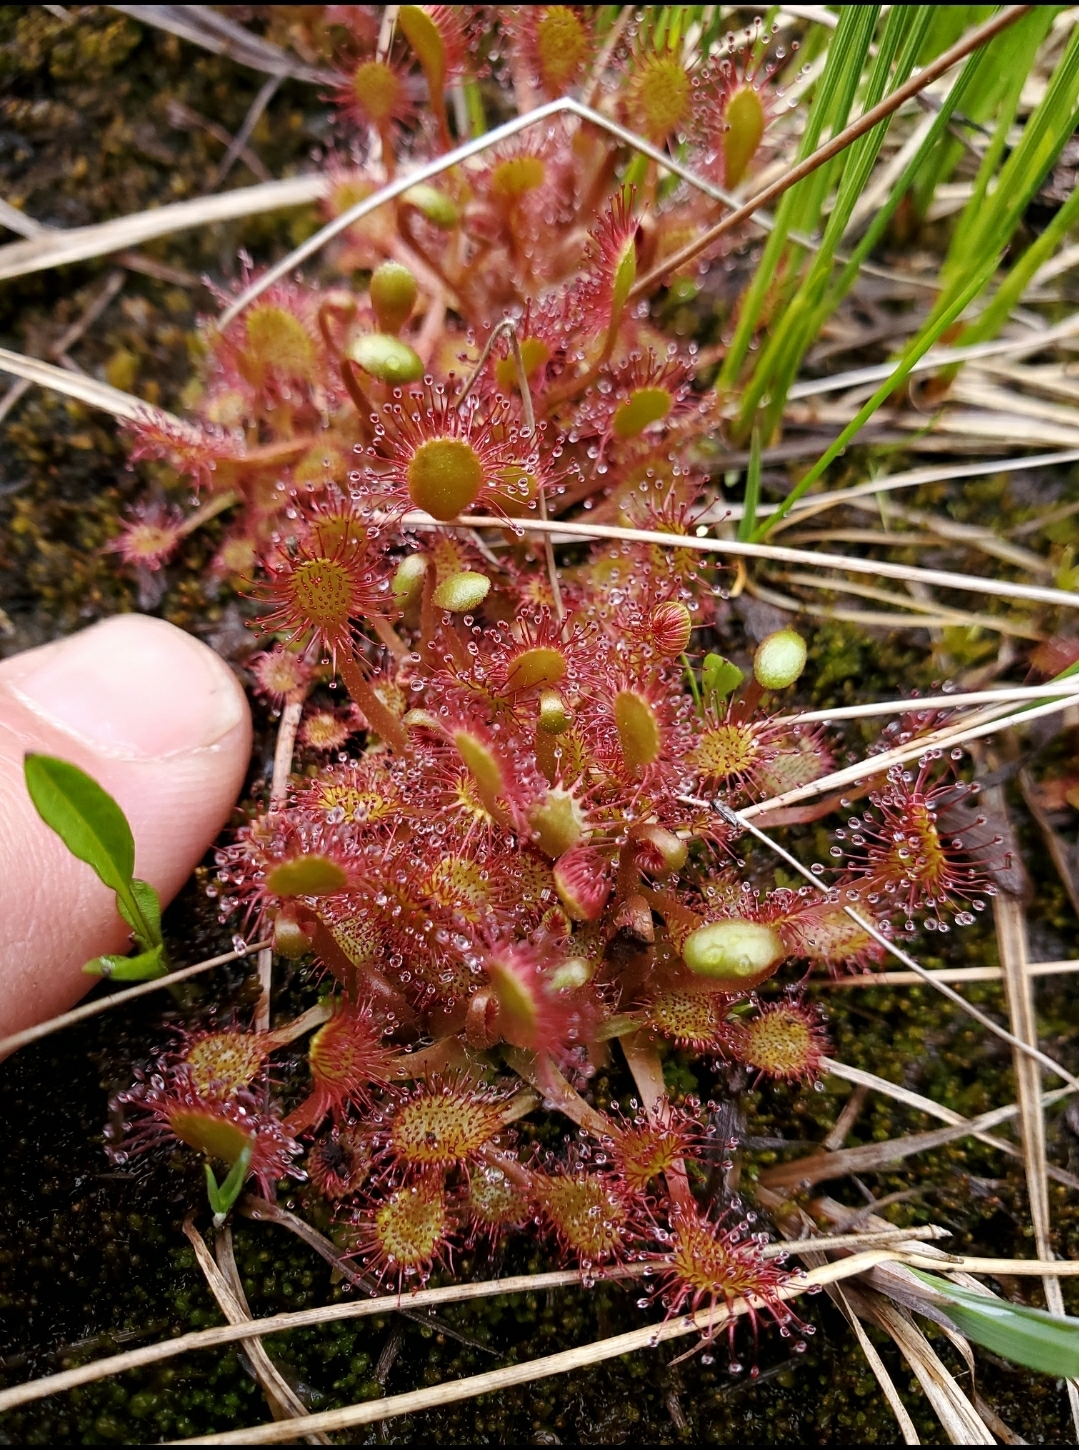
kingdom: Plantae
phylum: Tracheophyta
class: Magnoliopsida
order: Caryophyllales
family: Droseraceae
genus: Drosera
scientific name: Drosera obovata
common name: Ivan's paddle
